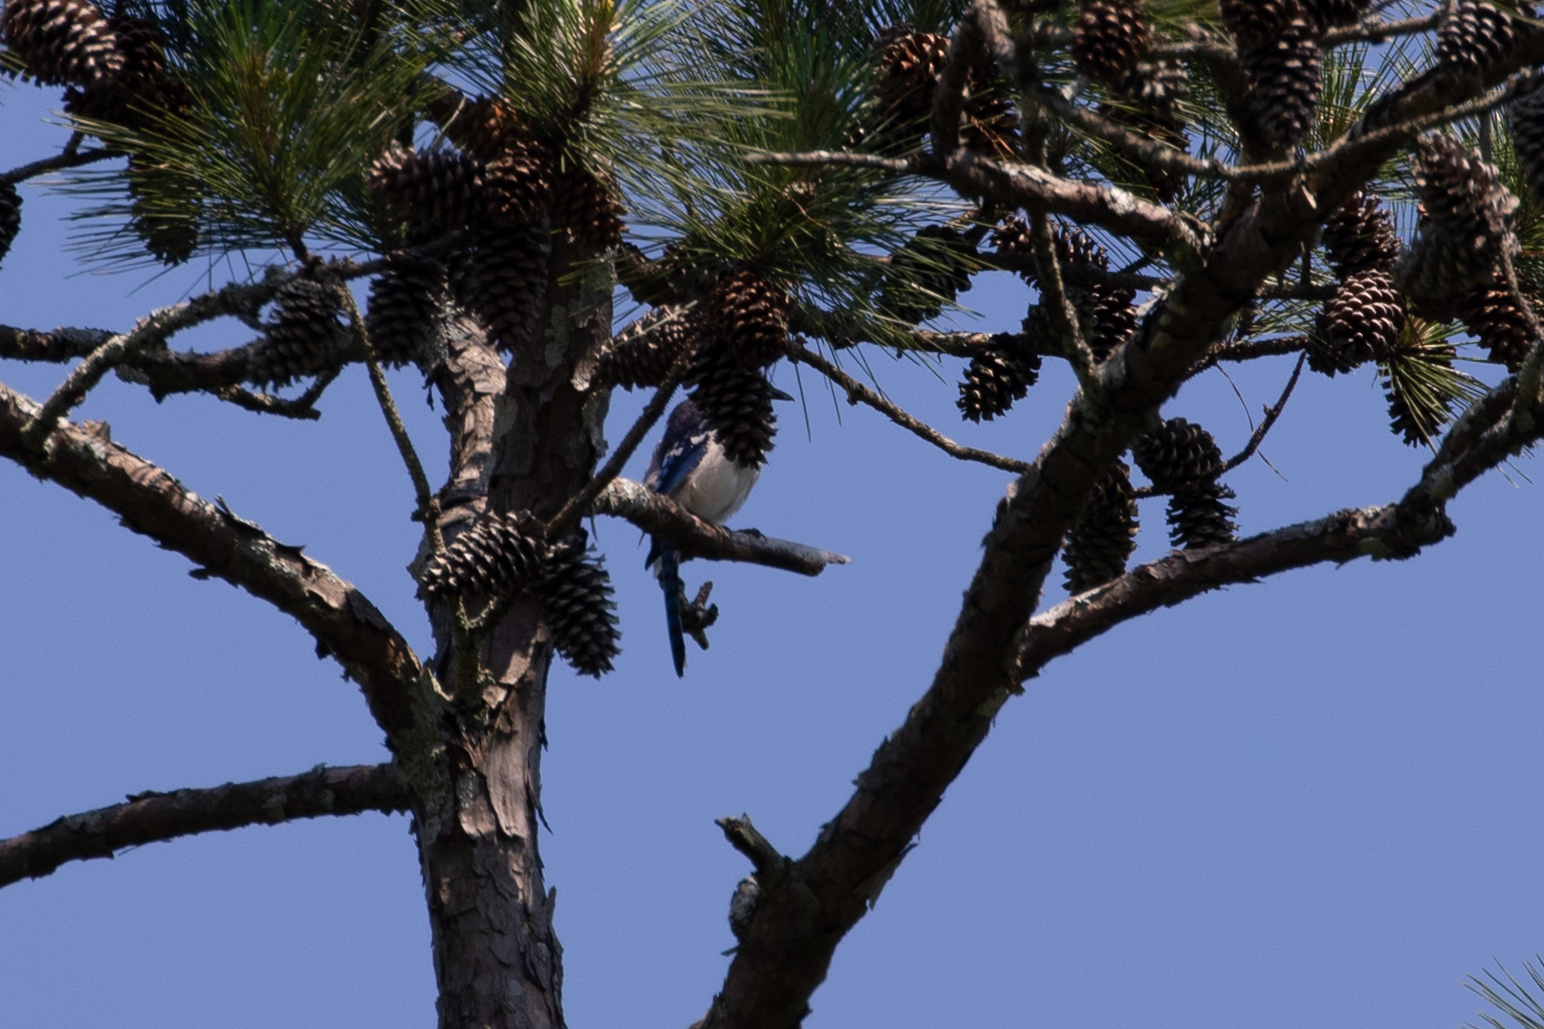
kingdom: Animalia
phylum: Chordata
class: Aves
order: Passeriformes
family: Corvidae
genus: Cyanocitta
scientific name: Cyanocitta cristata
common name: Blue jay
